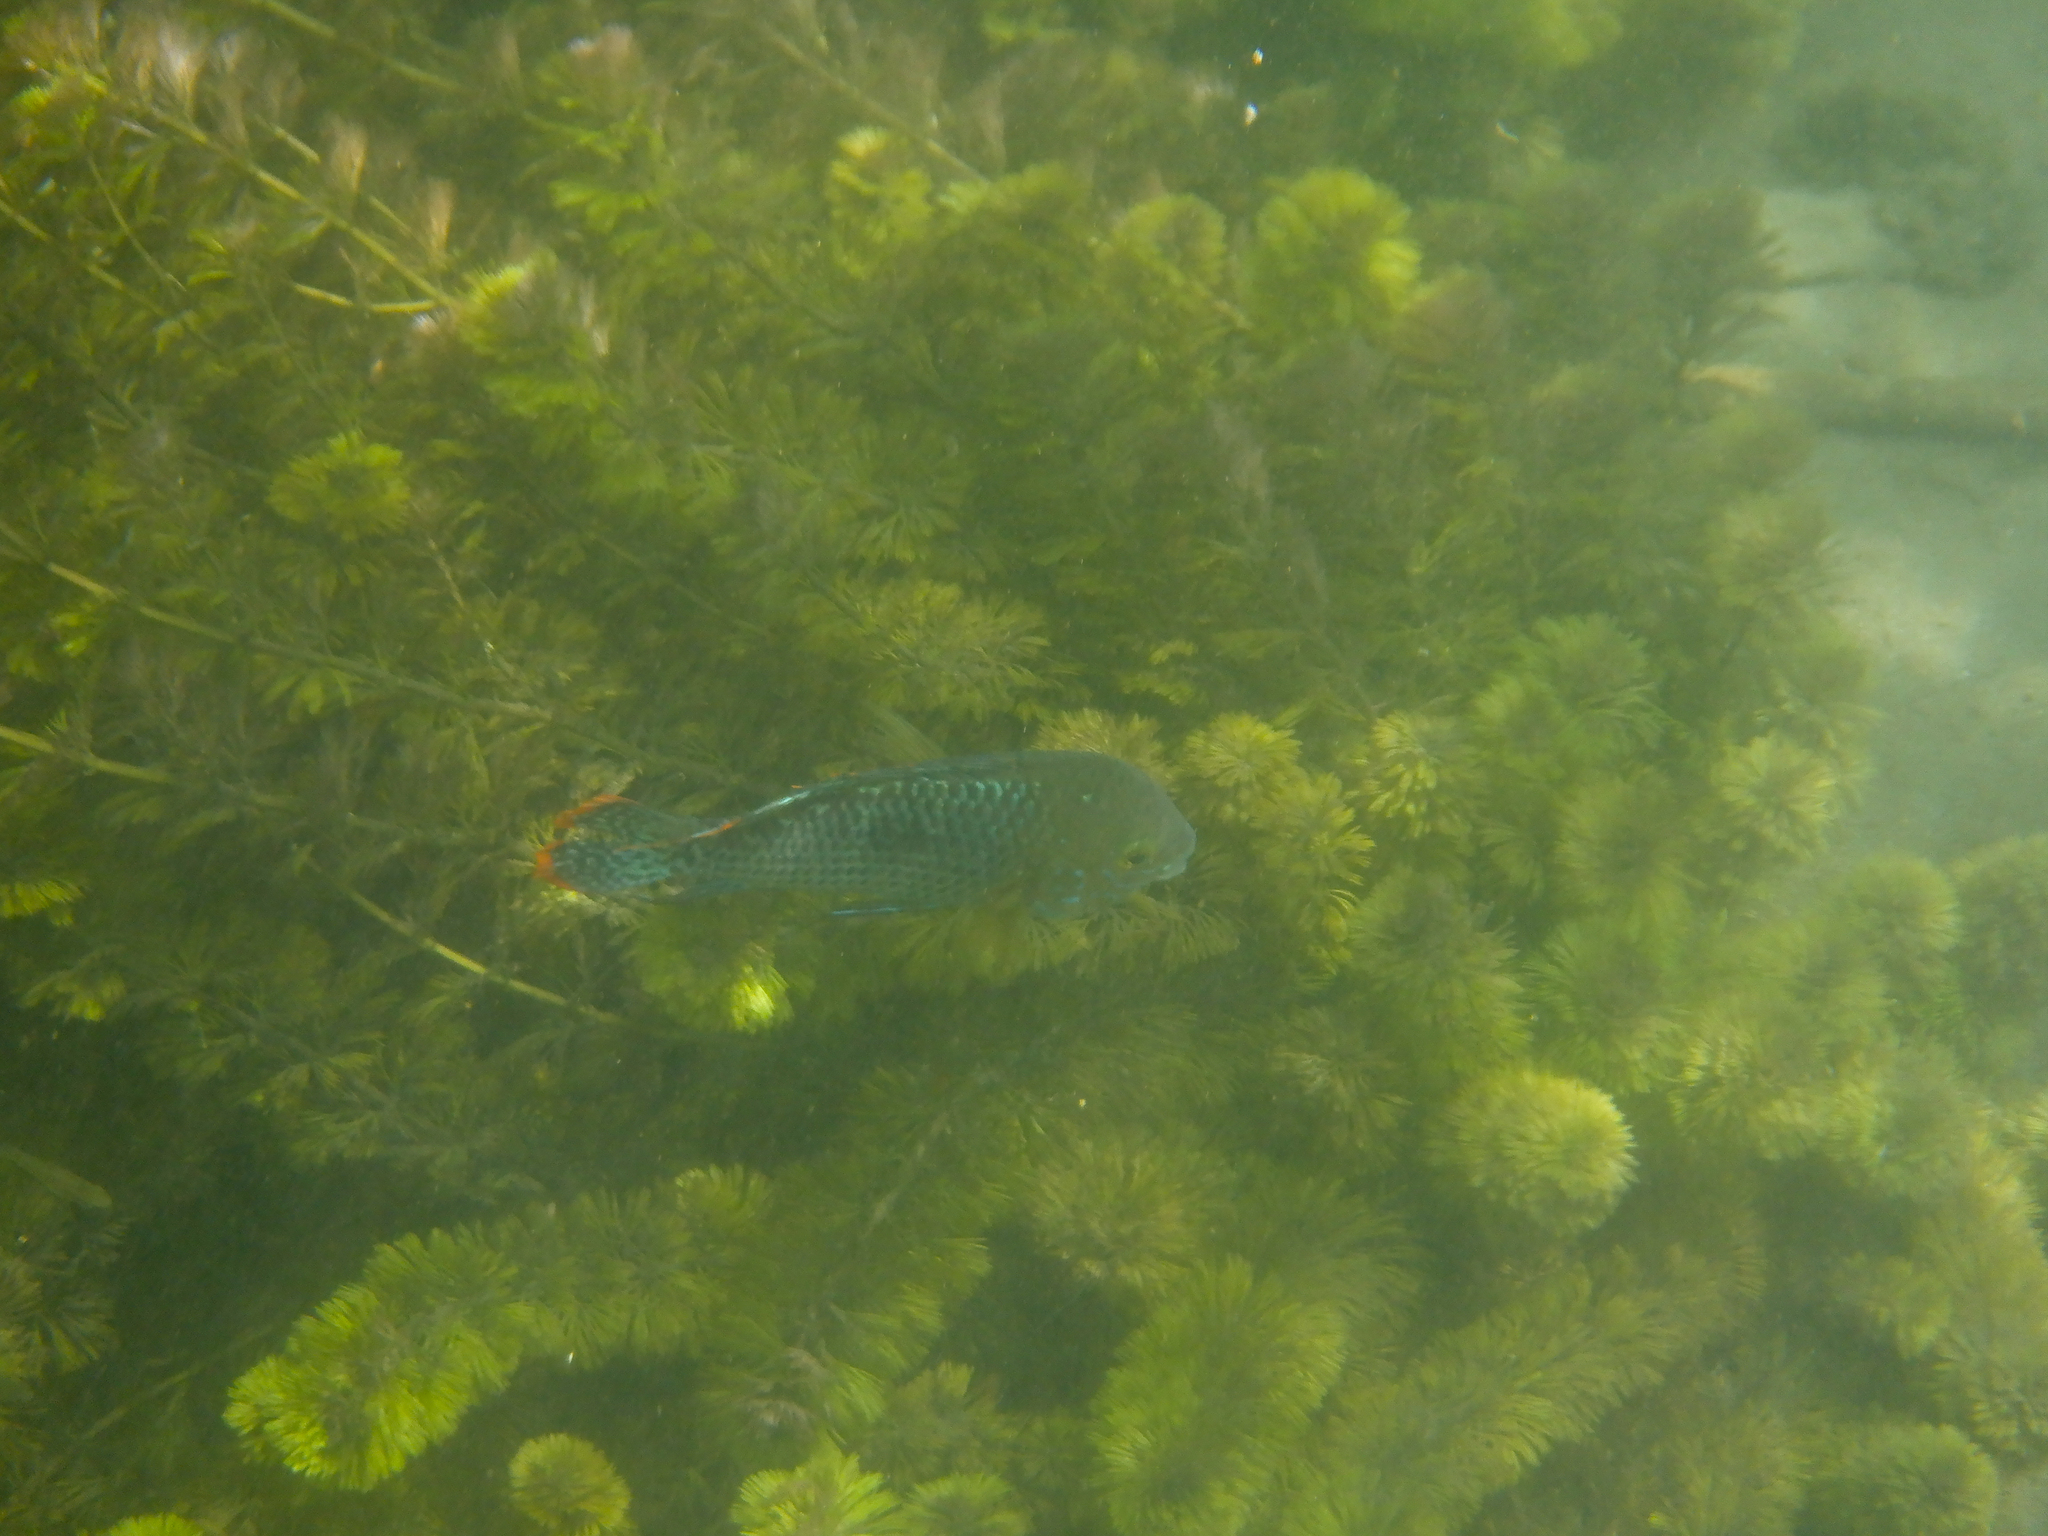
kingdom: Animalia
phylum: Chordata
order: Perciformes
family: Cichlidae
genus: Andinoacara
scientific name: Andinoacara rivulatus
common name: Green terror
